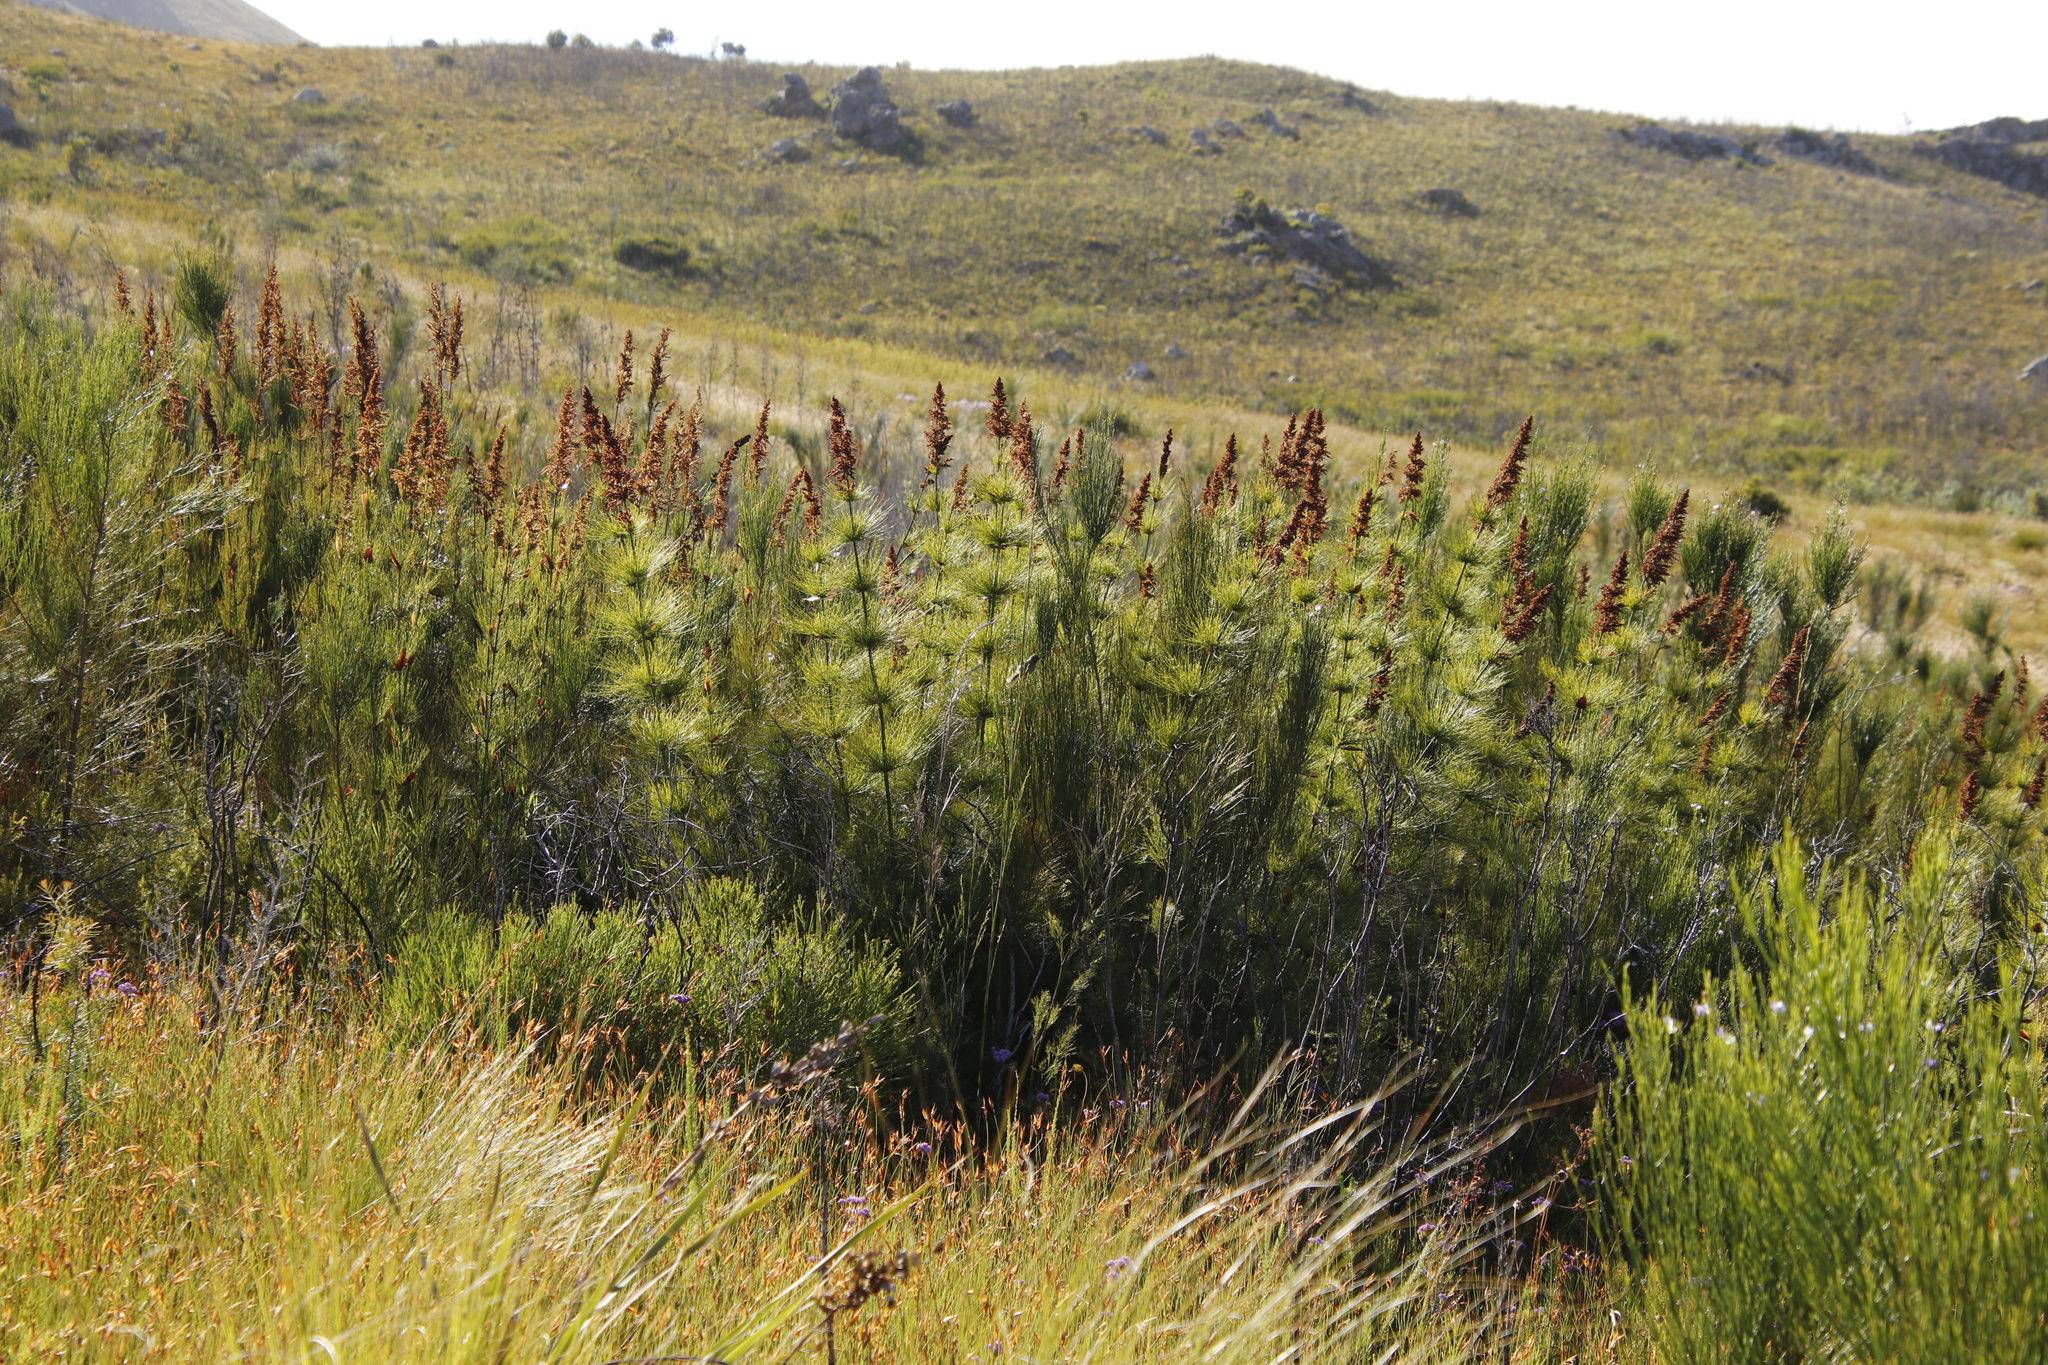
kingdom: Plantae
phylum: Tracheophyta
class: Liliopsida
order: Poales
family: Restionaceae
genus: Elegia
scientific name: Elegia capensis
